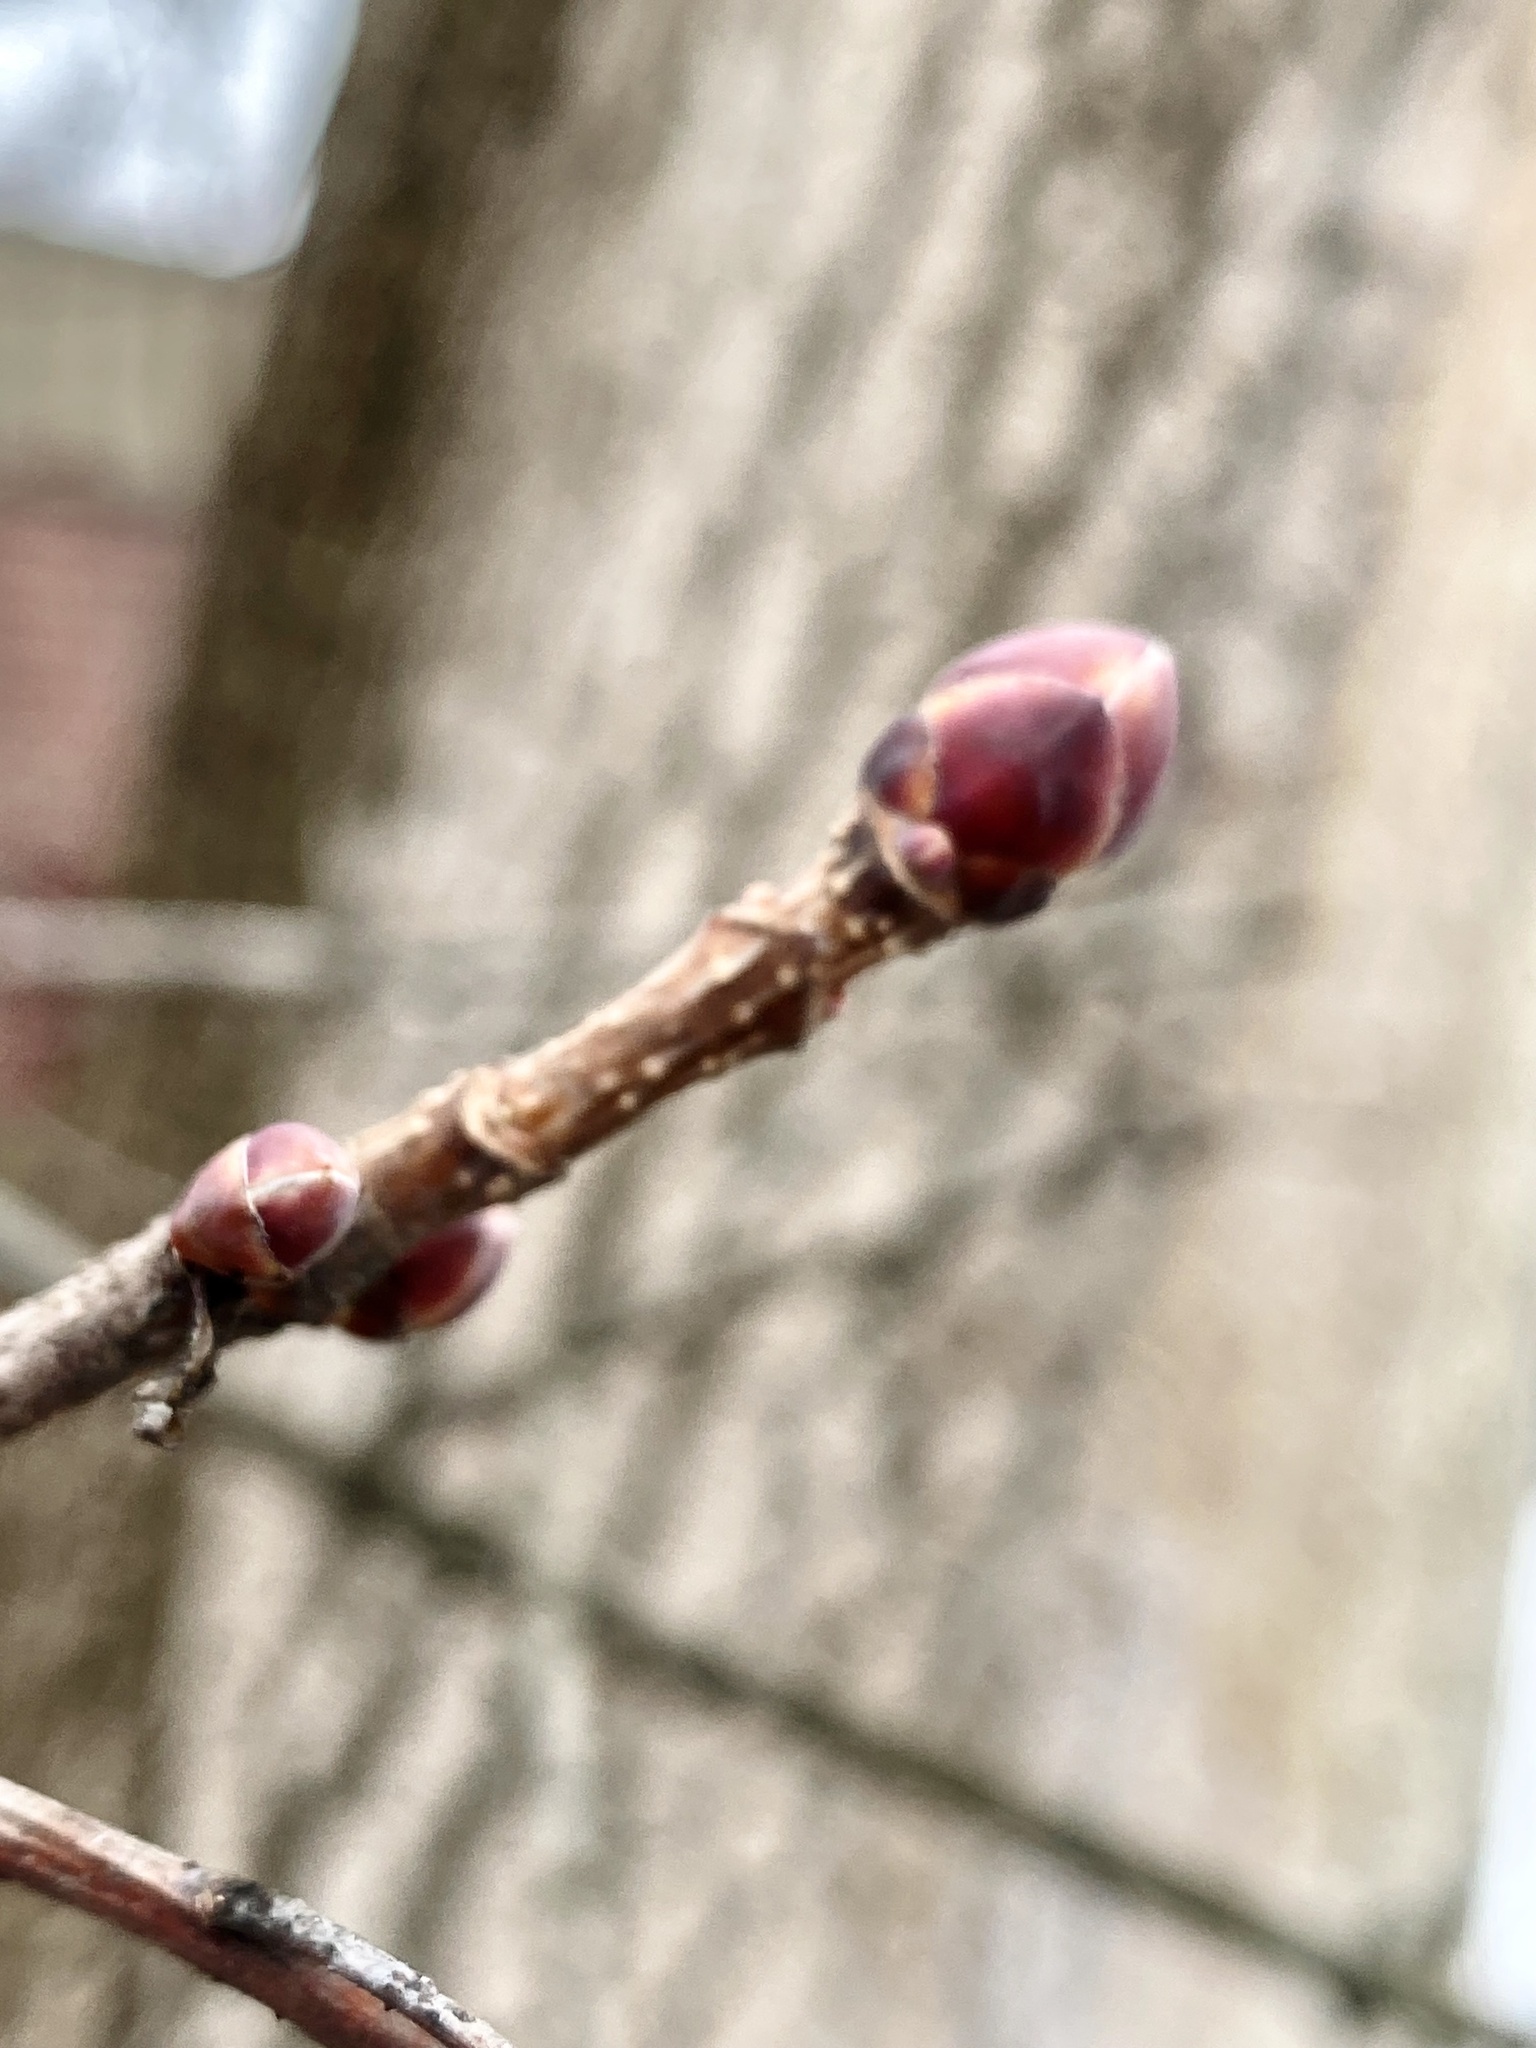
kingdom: Plantae
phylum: Tracheophyta
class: Magnoliopsida
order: Sapindales
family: Sapindaceae
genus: Acer
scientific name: Acer platanoides
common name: Norway maple
